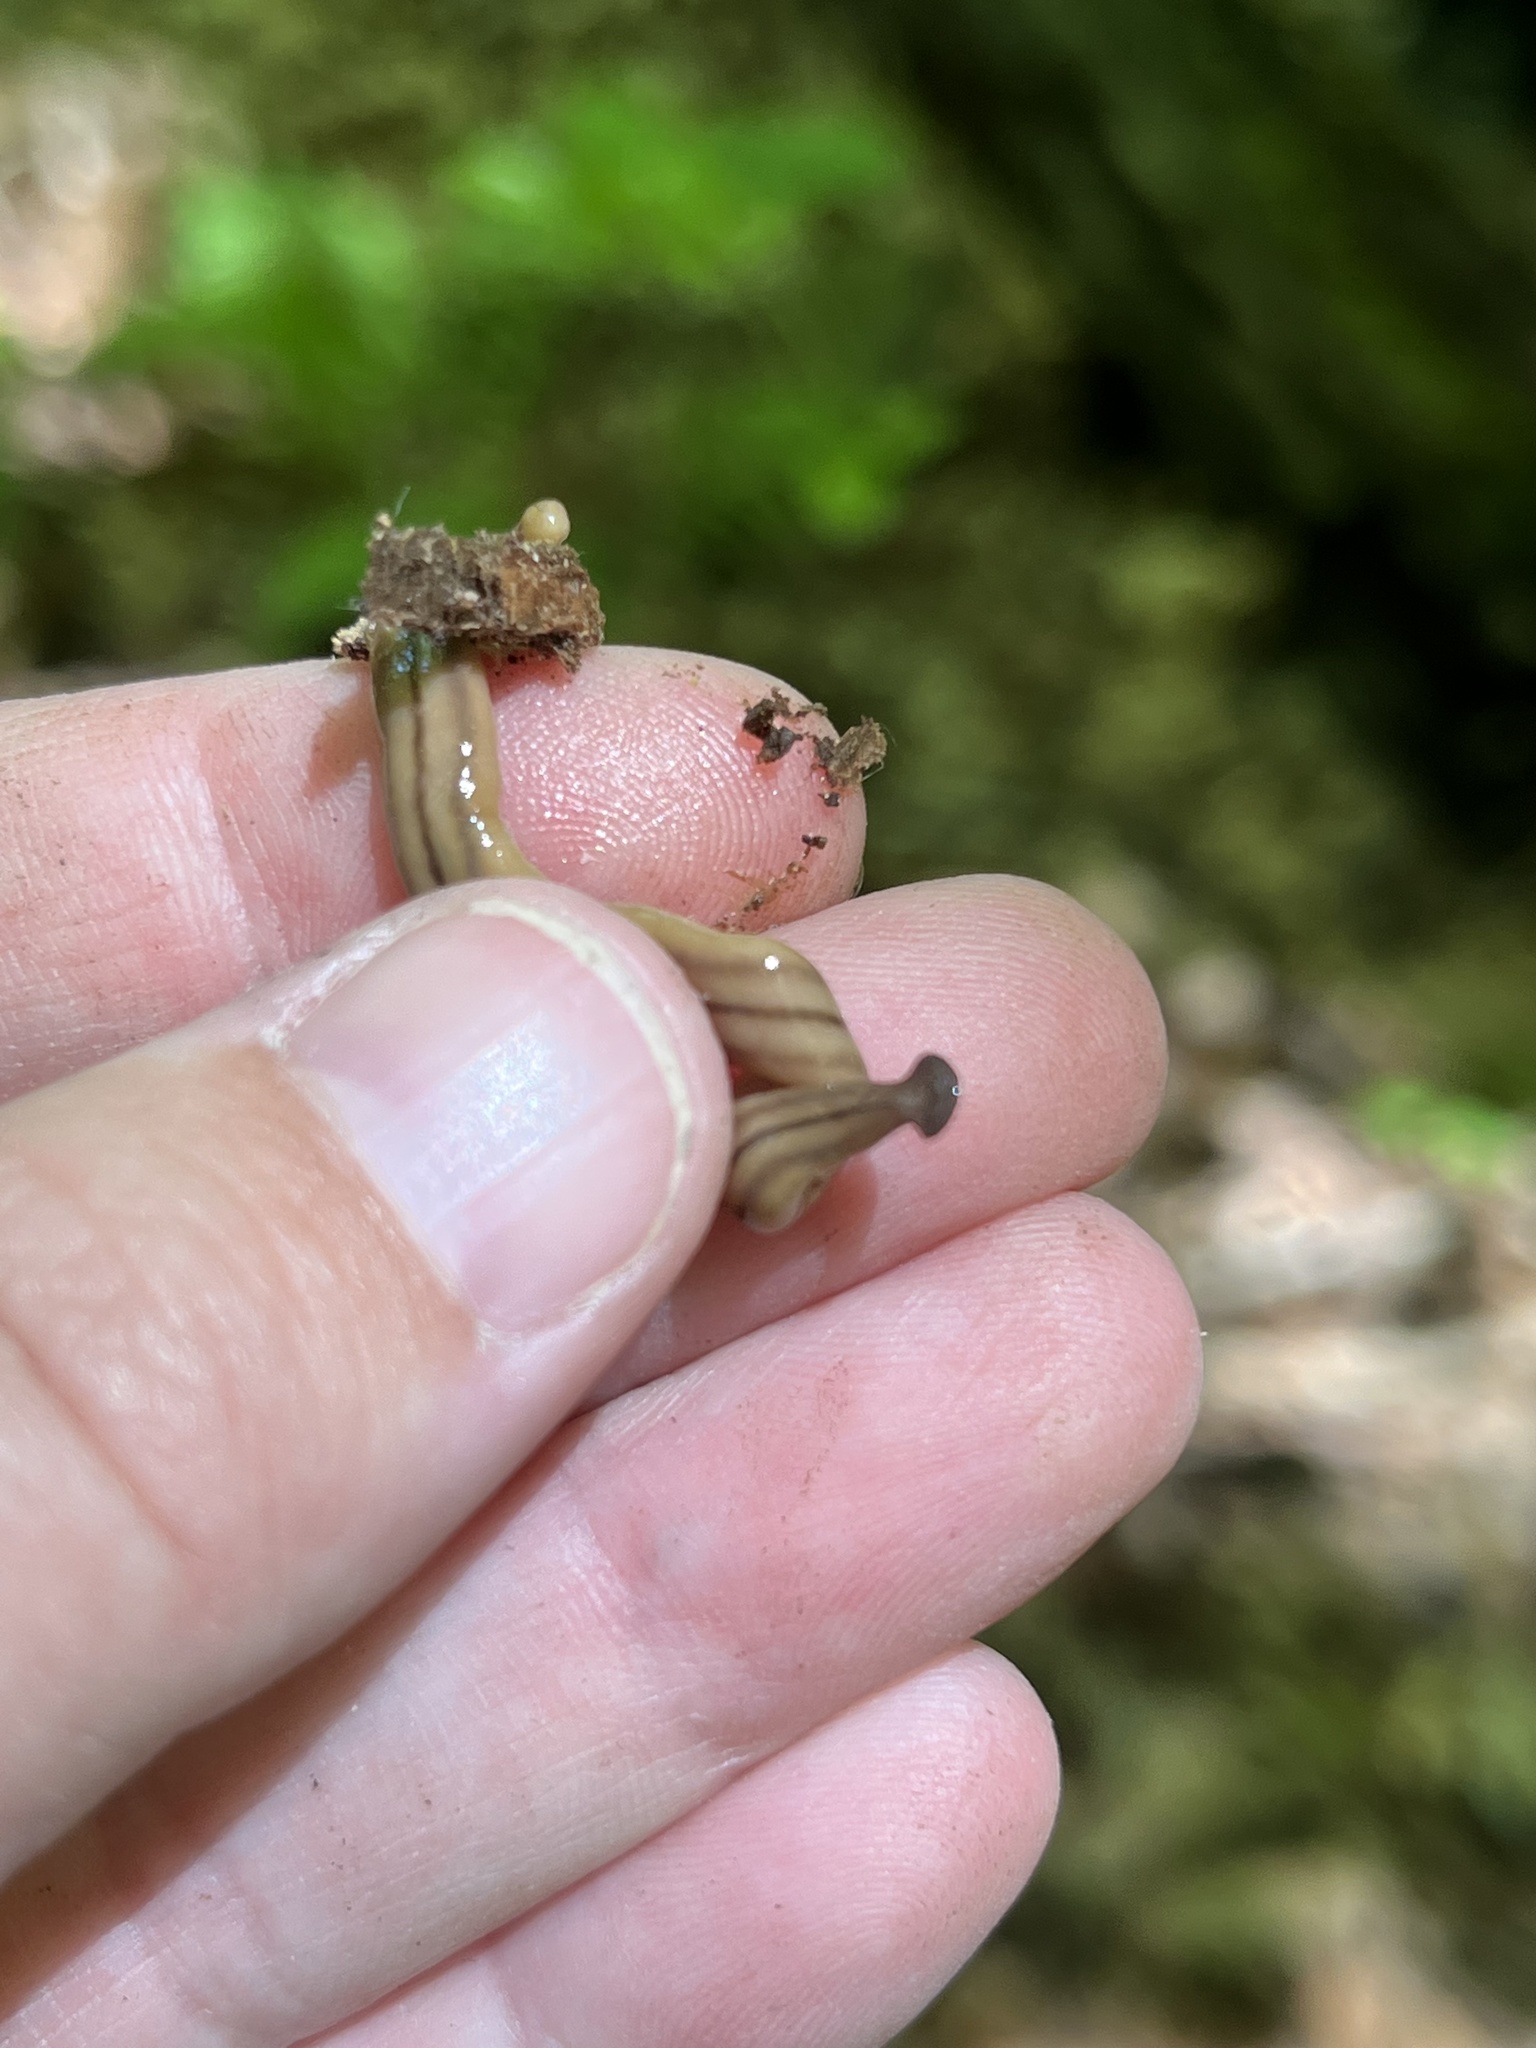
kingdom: Animalia
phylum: Platyhelminthes
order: Tricladida
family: Geoplanidae
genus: Bipalium
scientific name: Bipalium pennsylvanicum
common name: Three-lined land planarian
